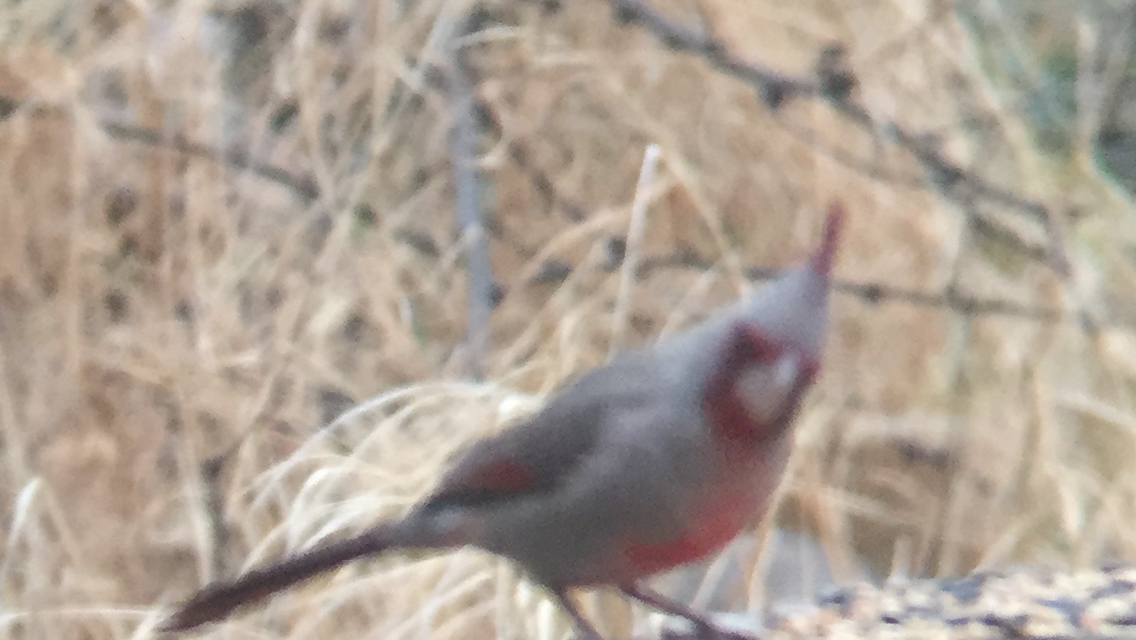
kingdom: Animalia
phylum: Chordata
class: Aves
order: Passeriformes
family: Cardinalidae
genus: Cardinalis
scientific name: Cardinalis sinuatus
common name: Pyrrhuloxia
